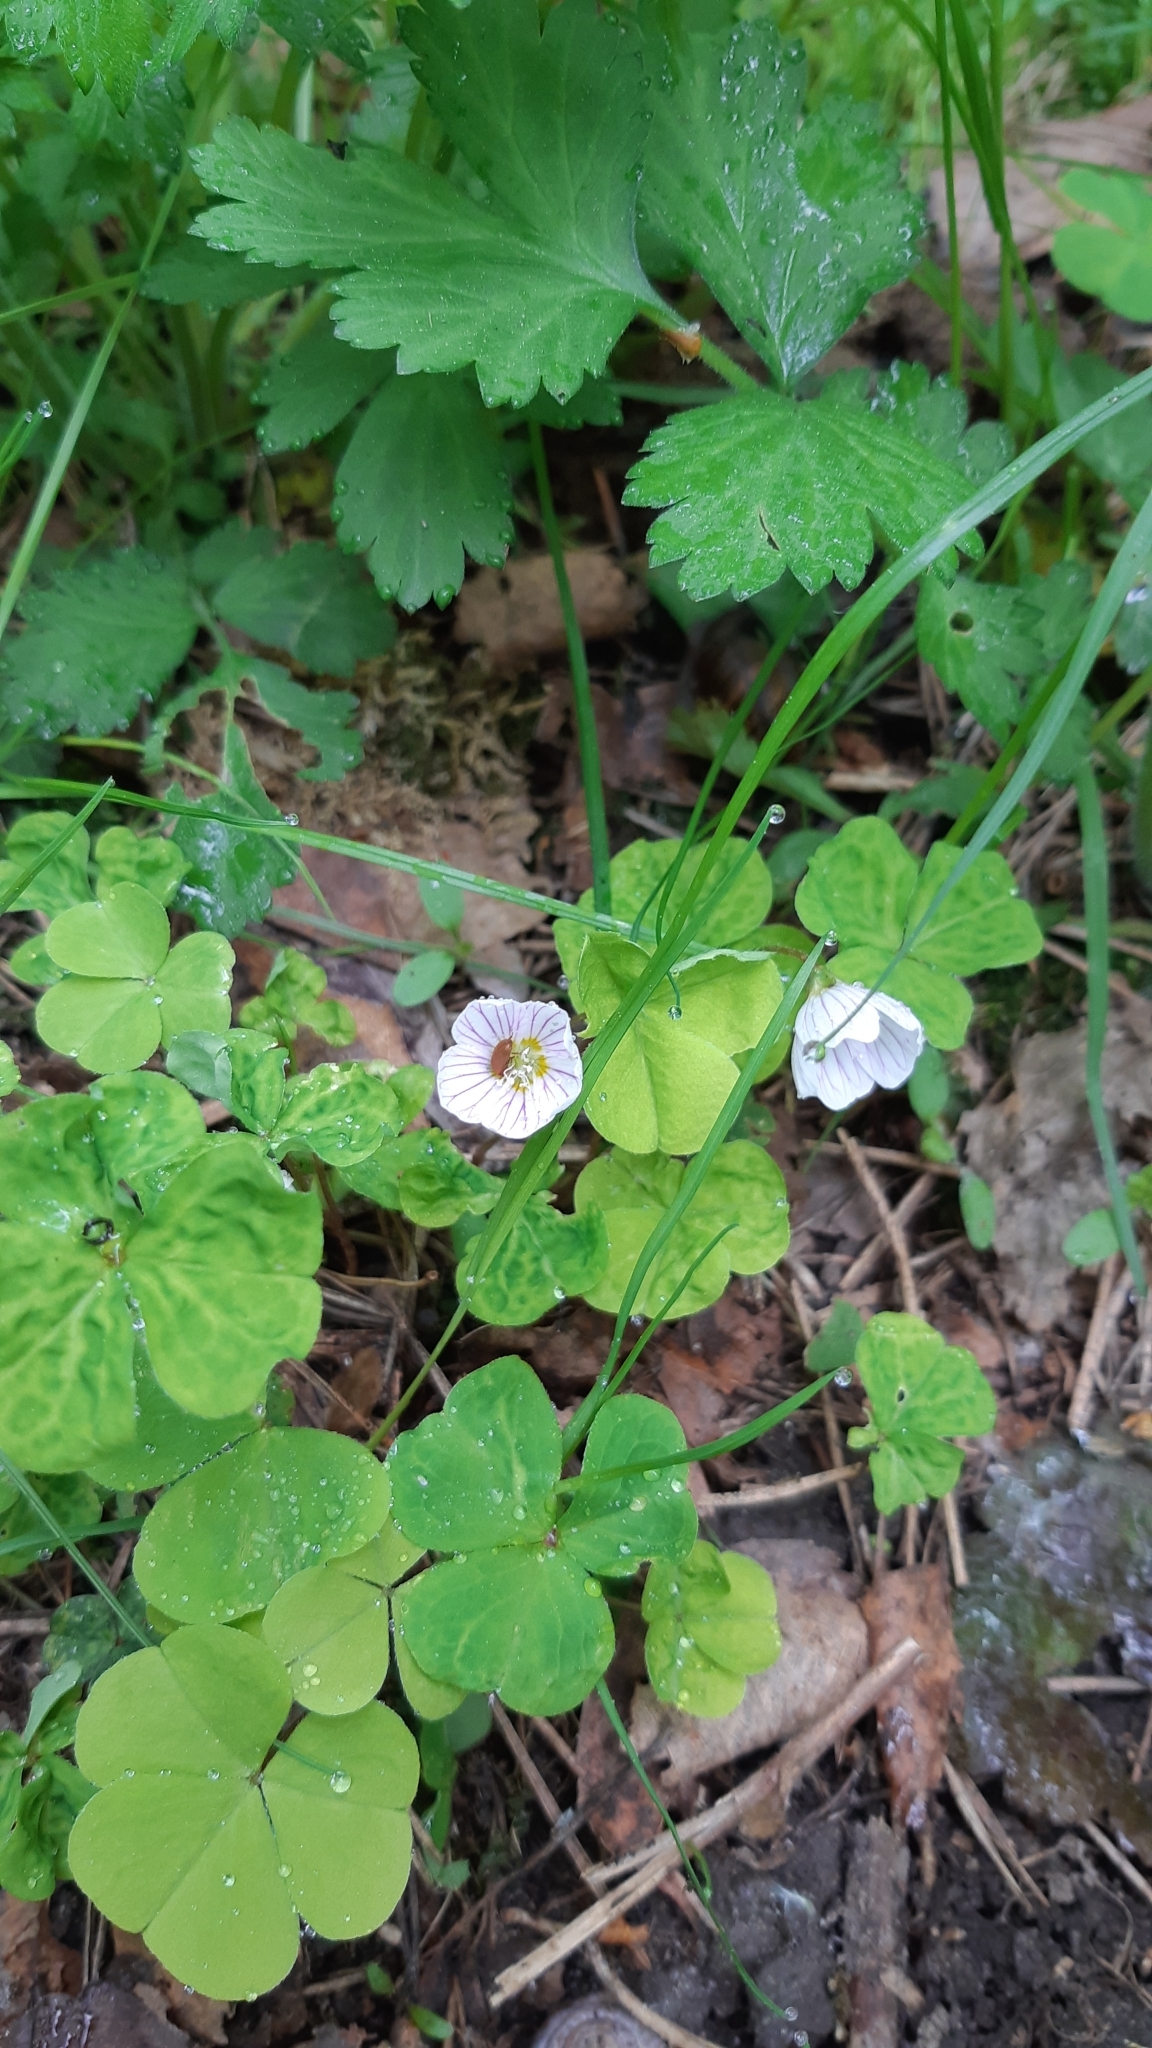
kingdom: Plantae
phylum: Tracheophyta
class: Magnoliopsida
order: Oxalidales
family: Oxalidaceae
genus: Oxalis
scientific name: Oxalis acetosella
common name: Wood-sorrel
